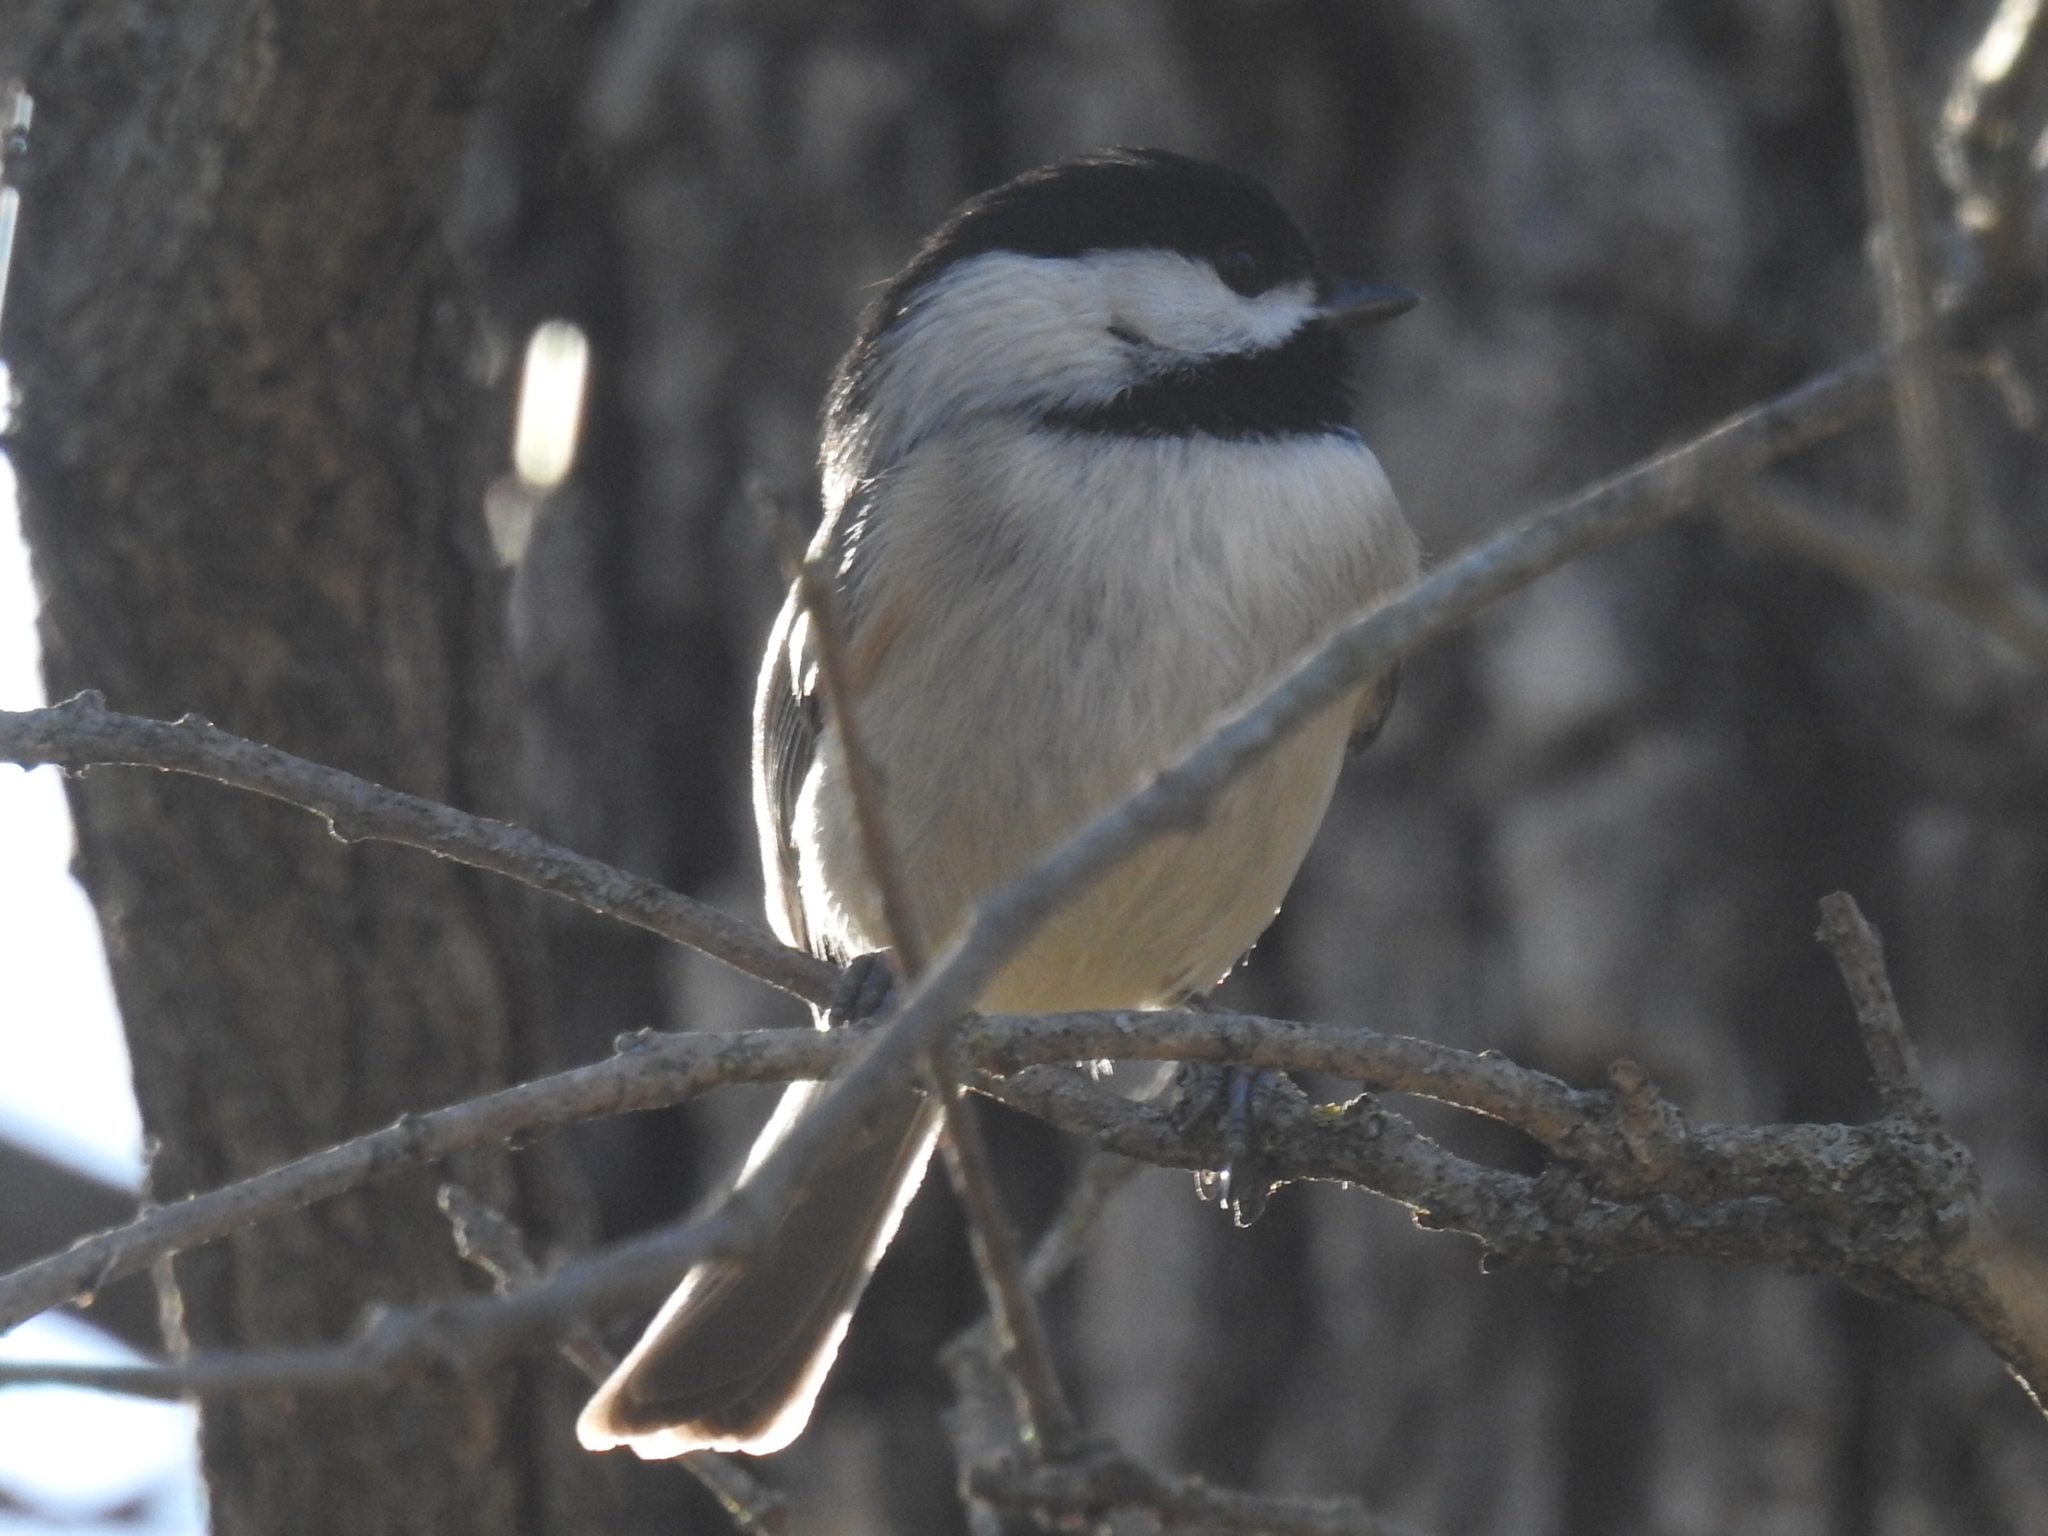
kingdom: Animalia
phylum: Chordata
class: Aves
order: Passeriformes
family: Paridae
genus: Poecile
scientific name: Poecile carolinensis
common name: Carolina chickadee
